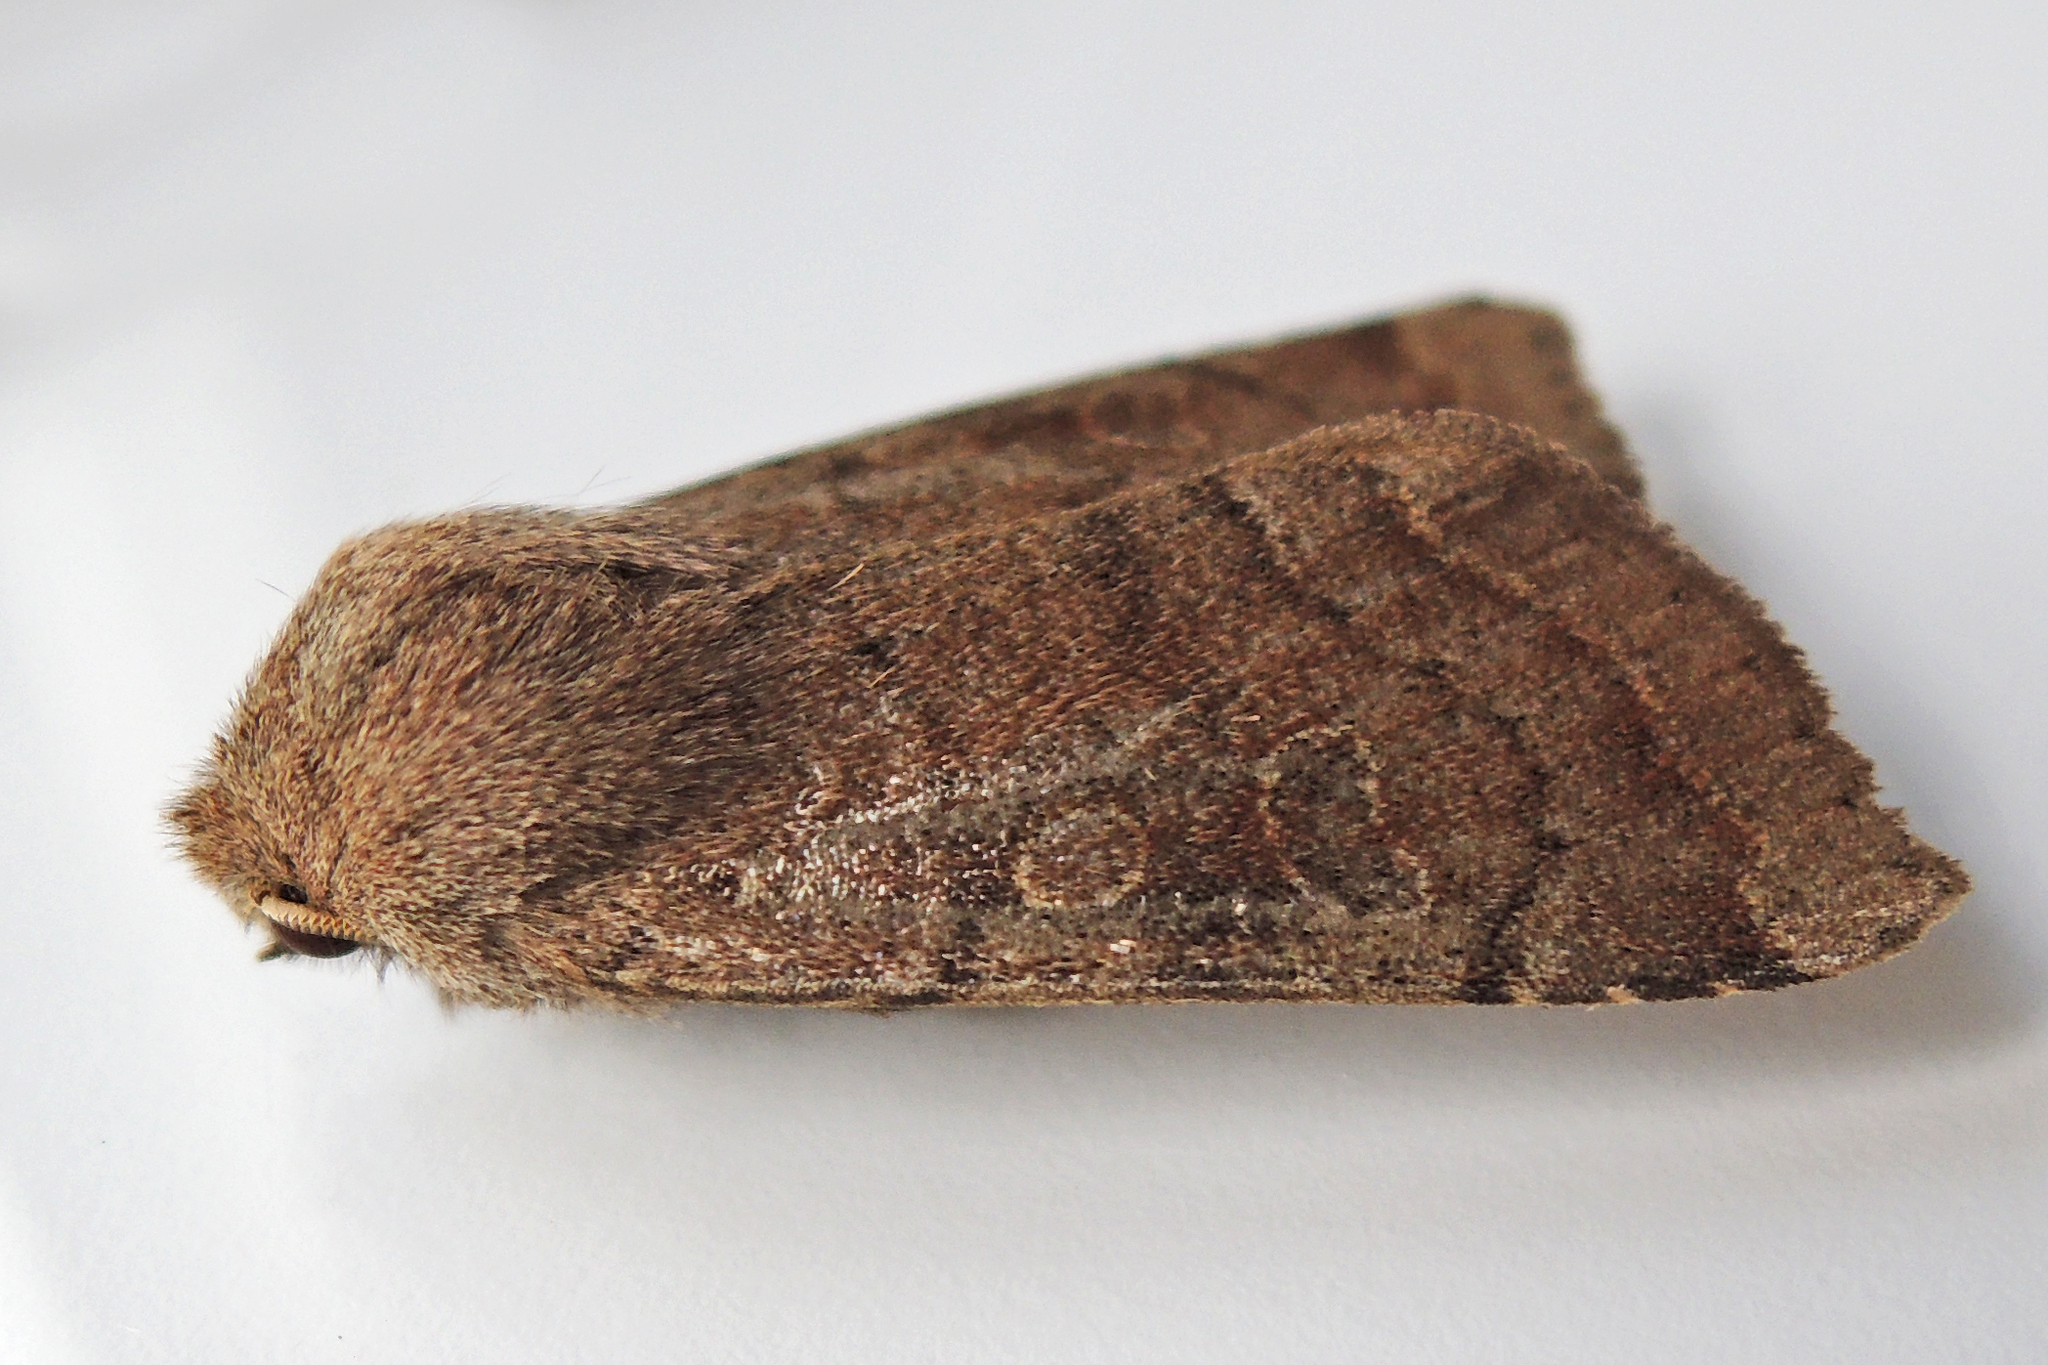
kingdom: Animalia
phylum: Arthropoda
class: Insecta
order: Lepidoptera
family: Noctuidae
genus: Orthosia
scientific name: Orthosia alurina
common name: Gray quaker
